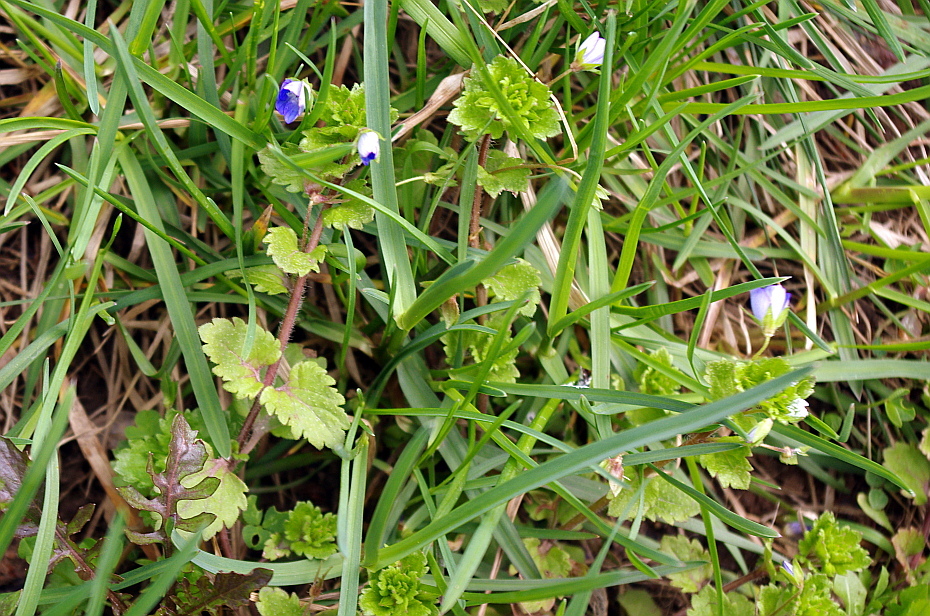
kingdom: Plantae
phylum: Tracheophyta
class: Magnoliopsida
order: Lamiales
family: Plantaginaceae
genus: Veronica
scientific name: Veronica persica
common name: Common field-speedwell
